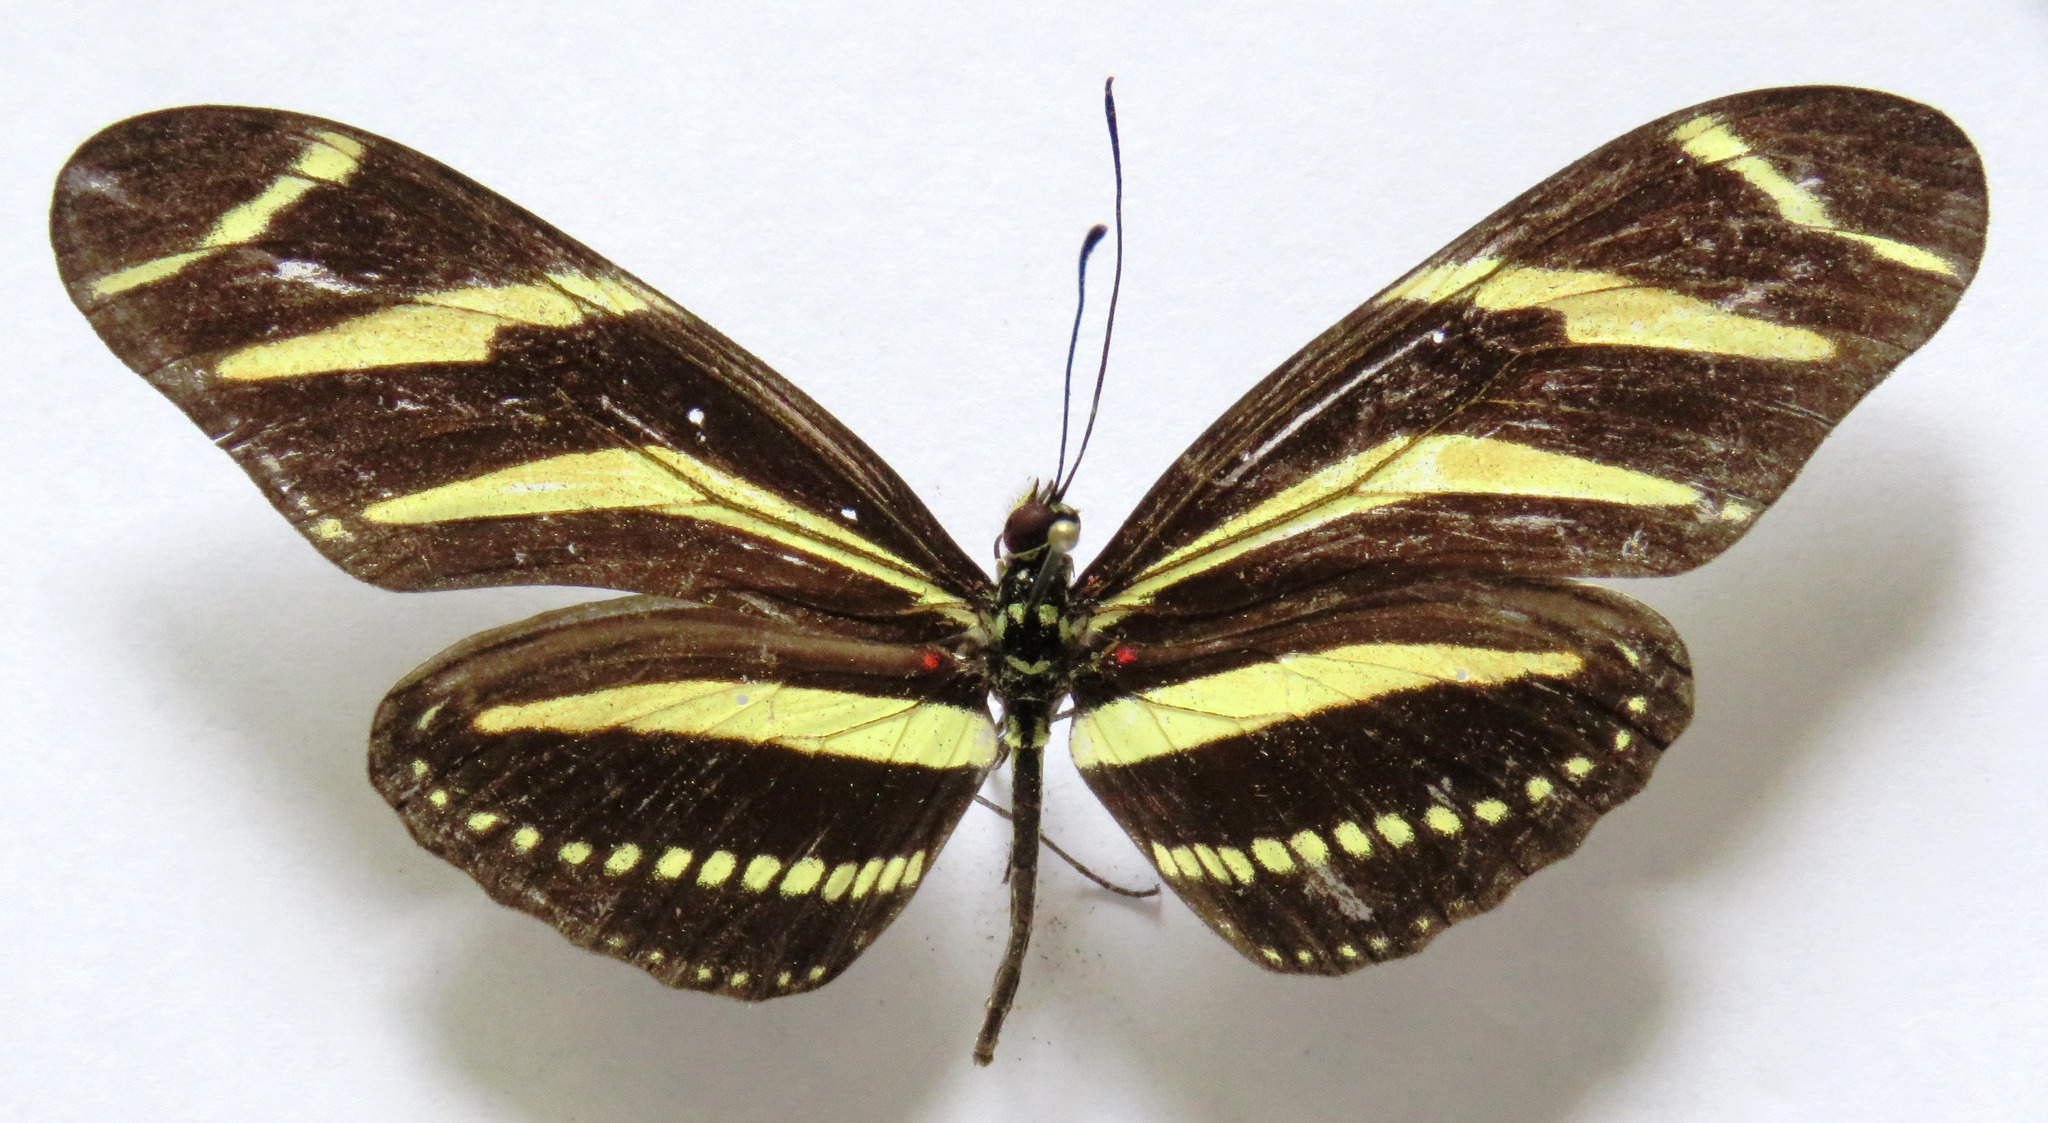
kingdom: Animalia
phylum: Arthropoda
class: Insecta
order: Lepidoptera
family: Nymphalidae
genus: Heliconius
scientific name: Heliconius charithonia
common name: Zebra long wing
